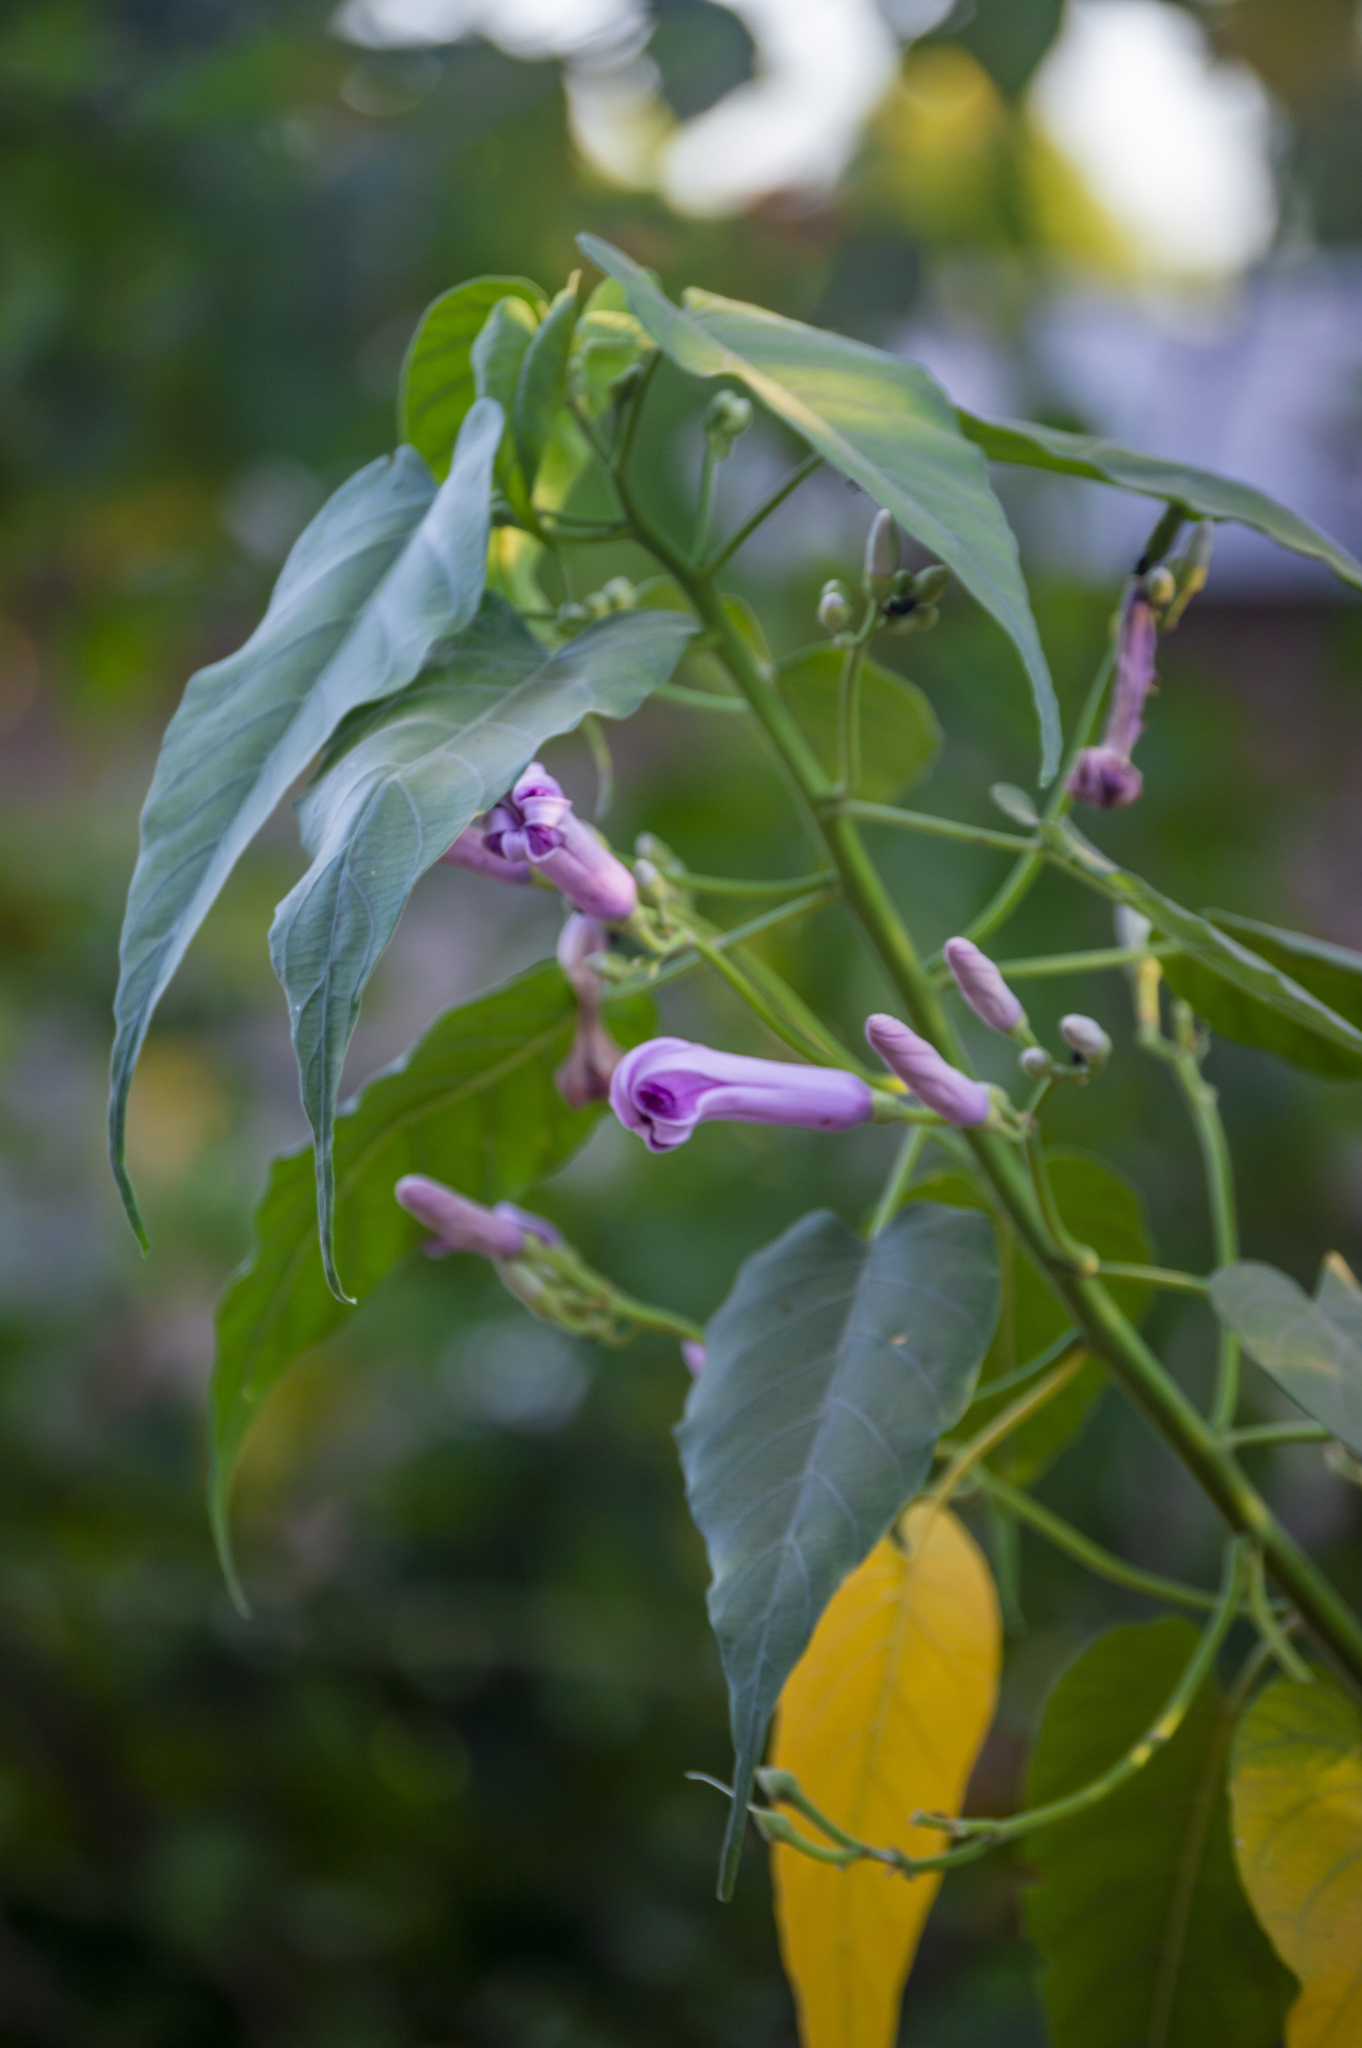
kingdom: Plantae
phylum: Tracheophyta
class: Magnoliopsida
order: Solanales
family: Convolvulaceae
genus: Ipomoea
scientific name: Ipomoea carnea
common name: Morning-glory
